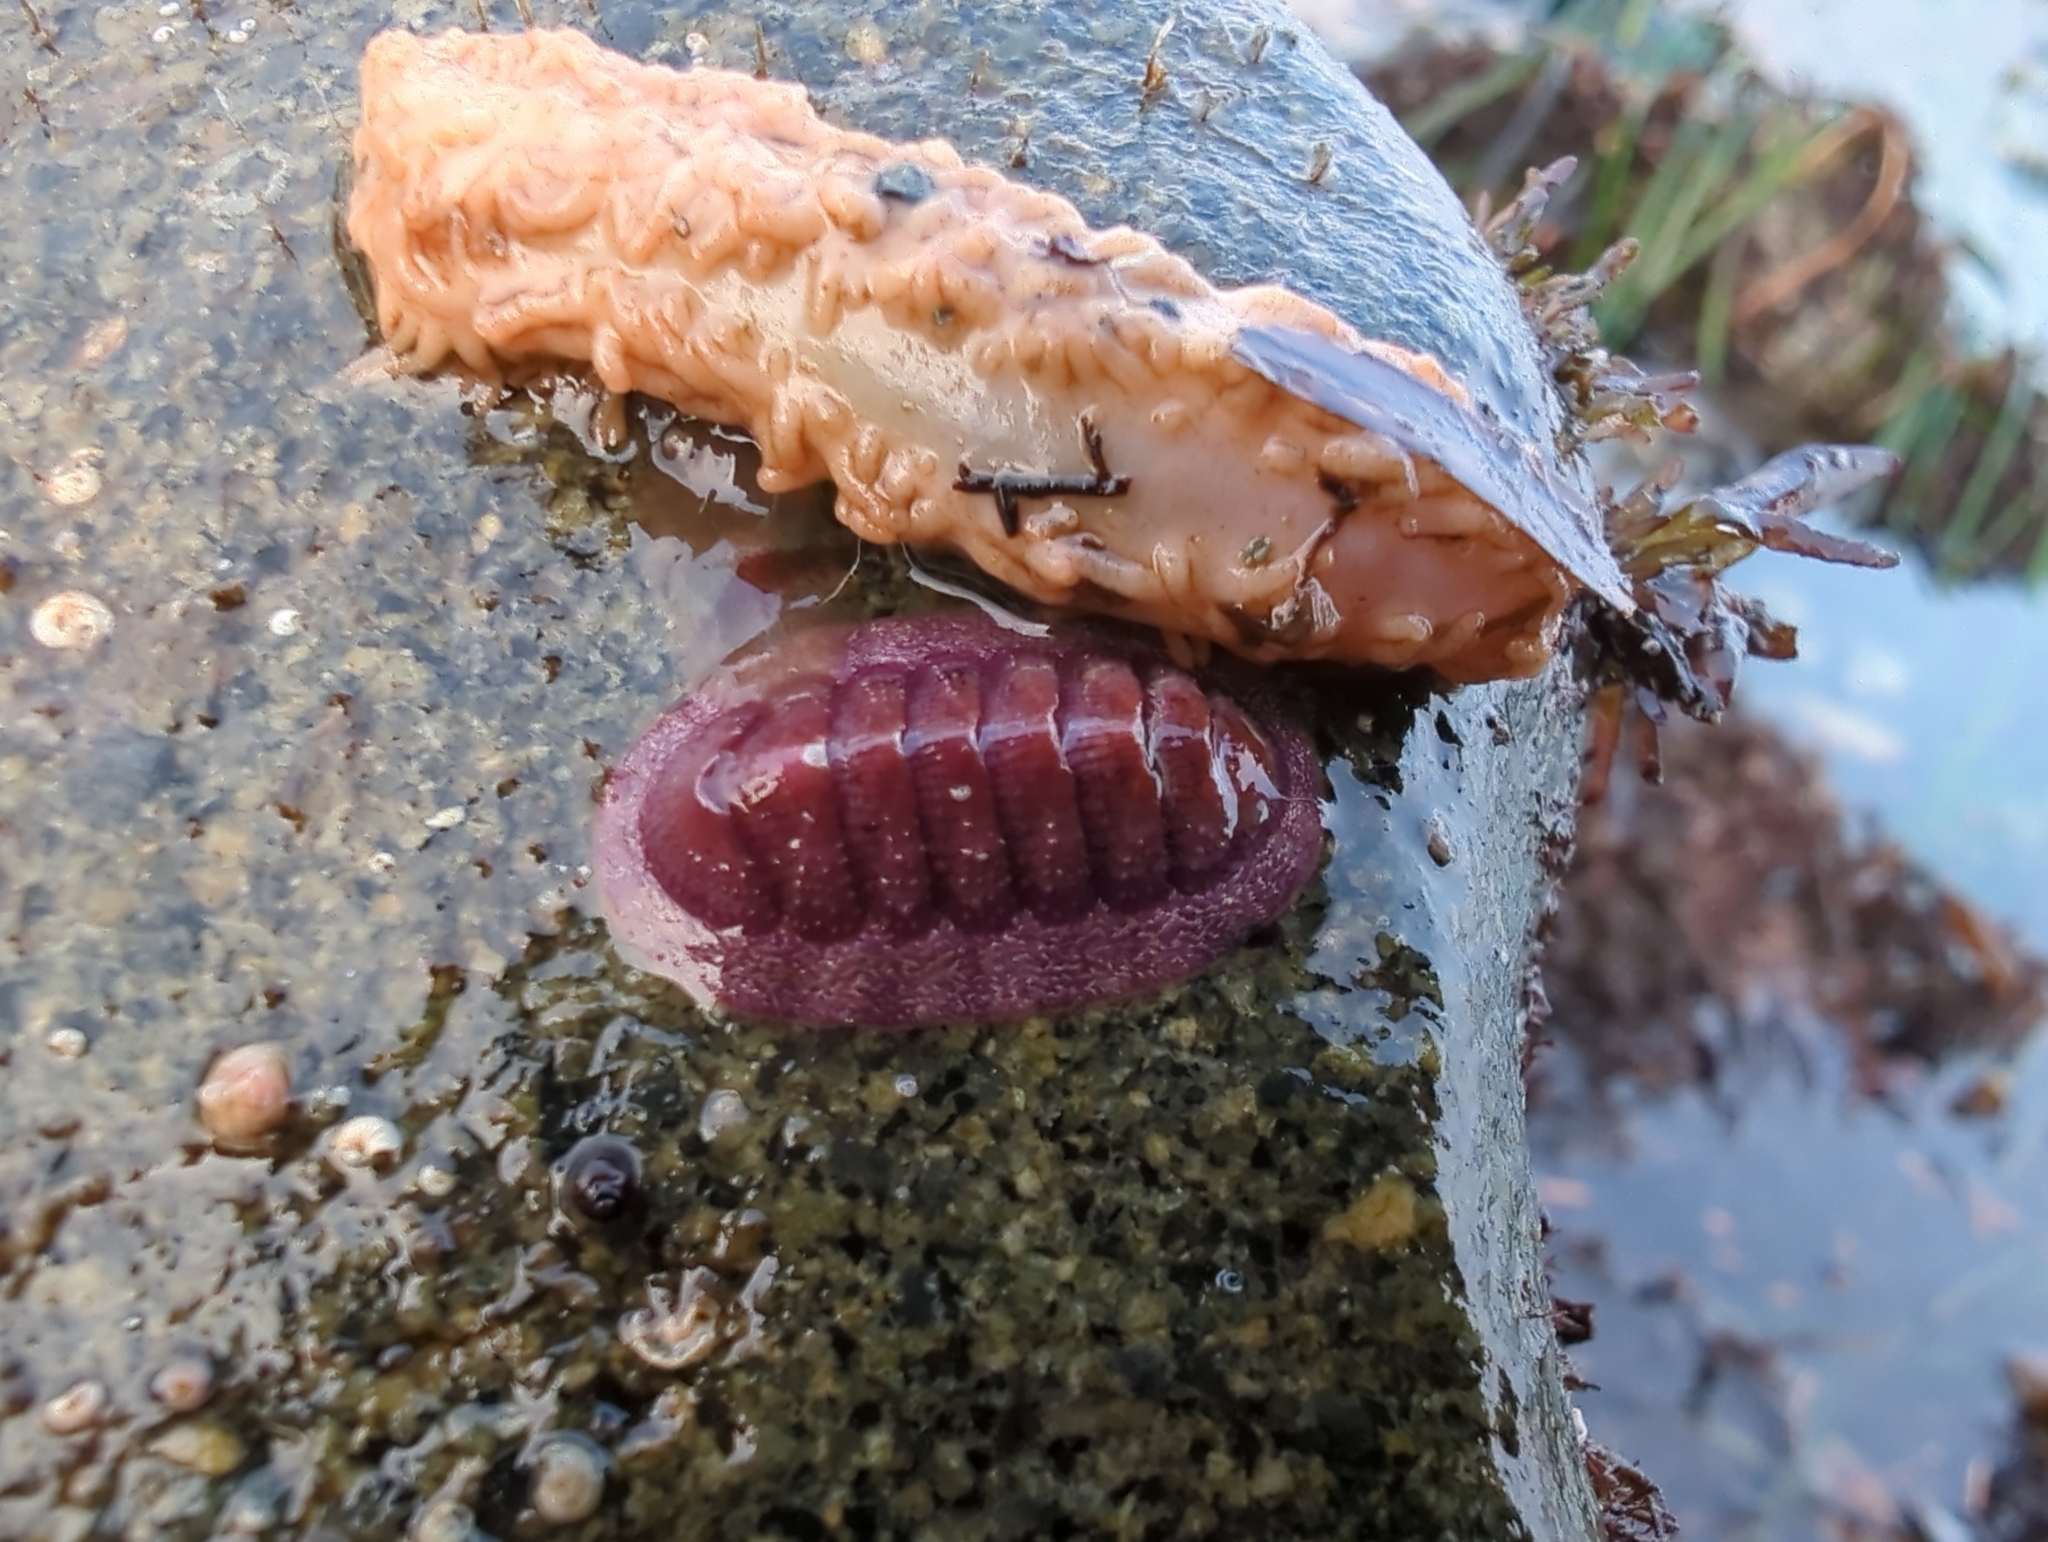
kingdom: Animalia
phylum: Mollusca
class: Polyplacophora
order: Chitonida
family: Ischnochitonidae
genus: Lepidozona
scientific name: Lepidozona mertensii
